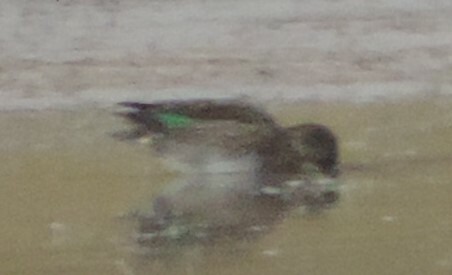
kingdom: Animalia
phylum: Chordata
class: Aves
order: Anseriformes
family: Anatidae
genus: Anas
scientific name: Anas crecca
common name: Eurasian teal
